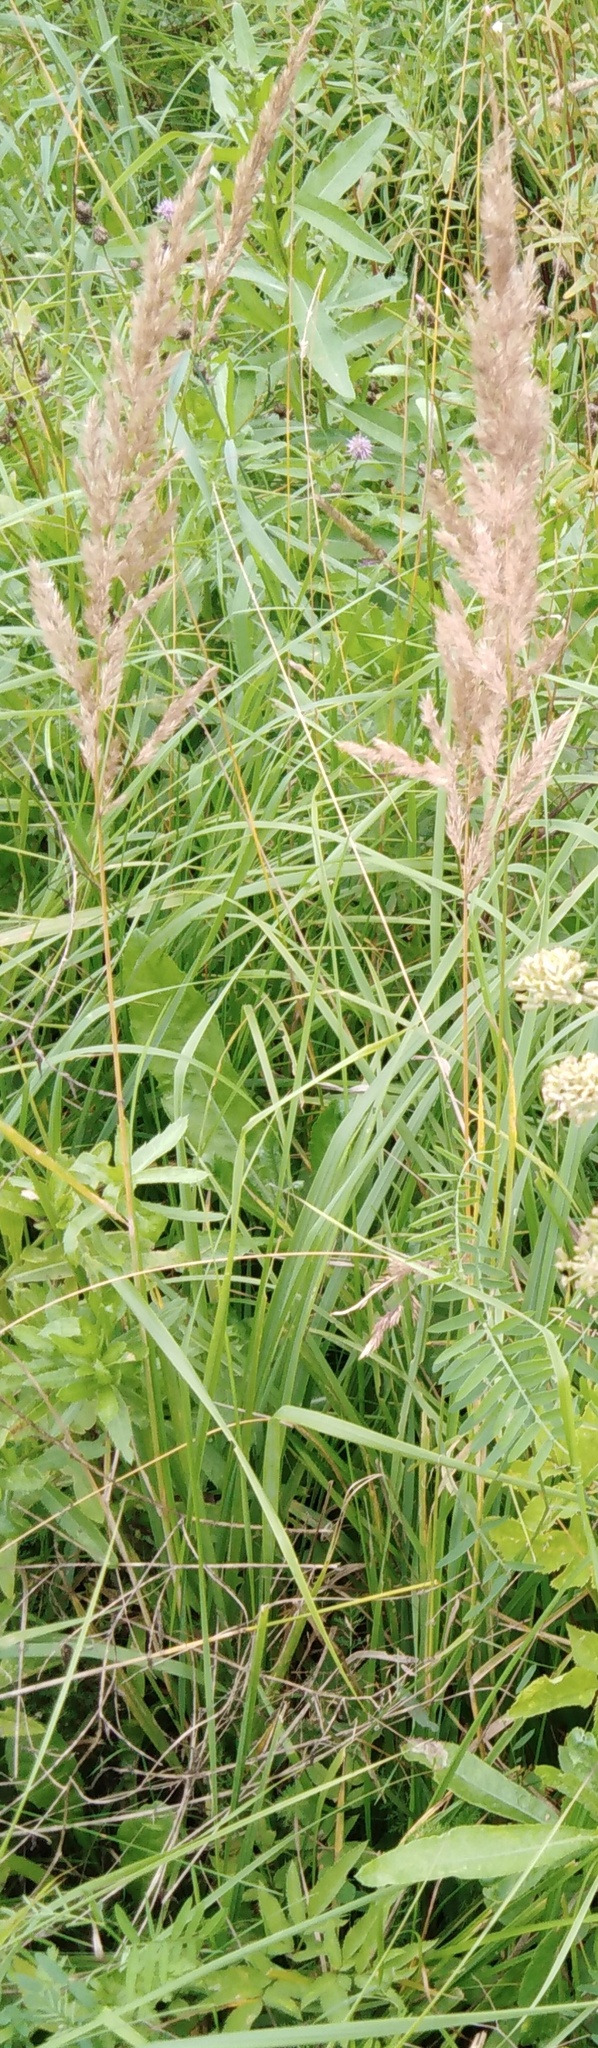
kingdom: Plantae
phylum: Tracheophyta
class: Liliopsida
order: Poales
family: Poaceae
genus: Calamagrostis
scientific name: Calamagrostis epigejos
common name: Wood small-reed
